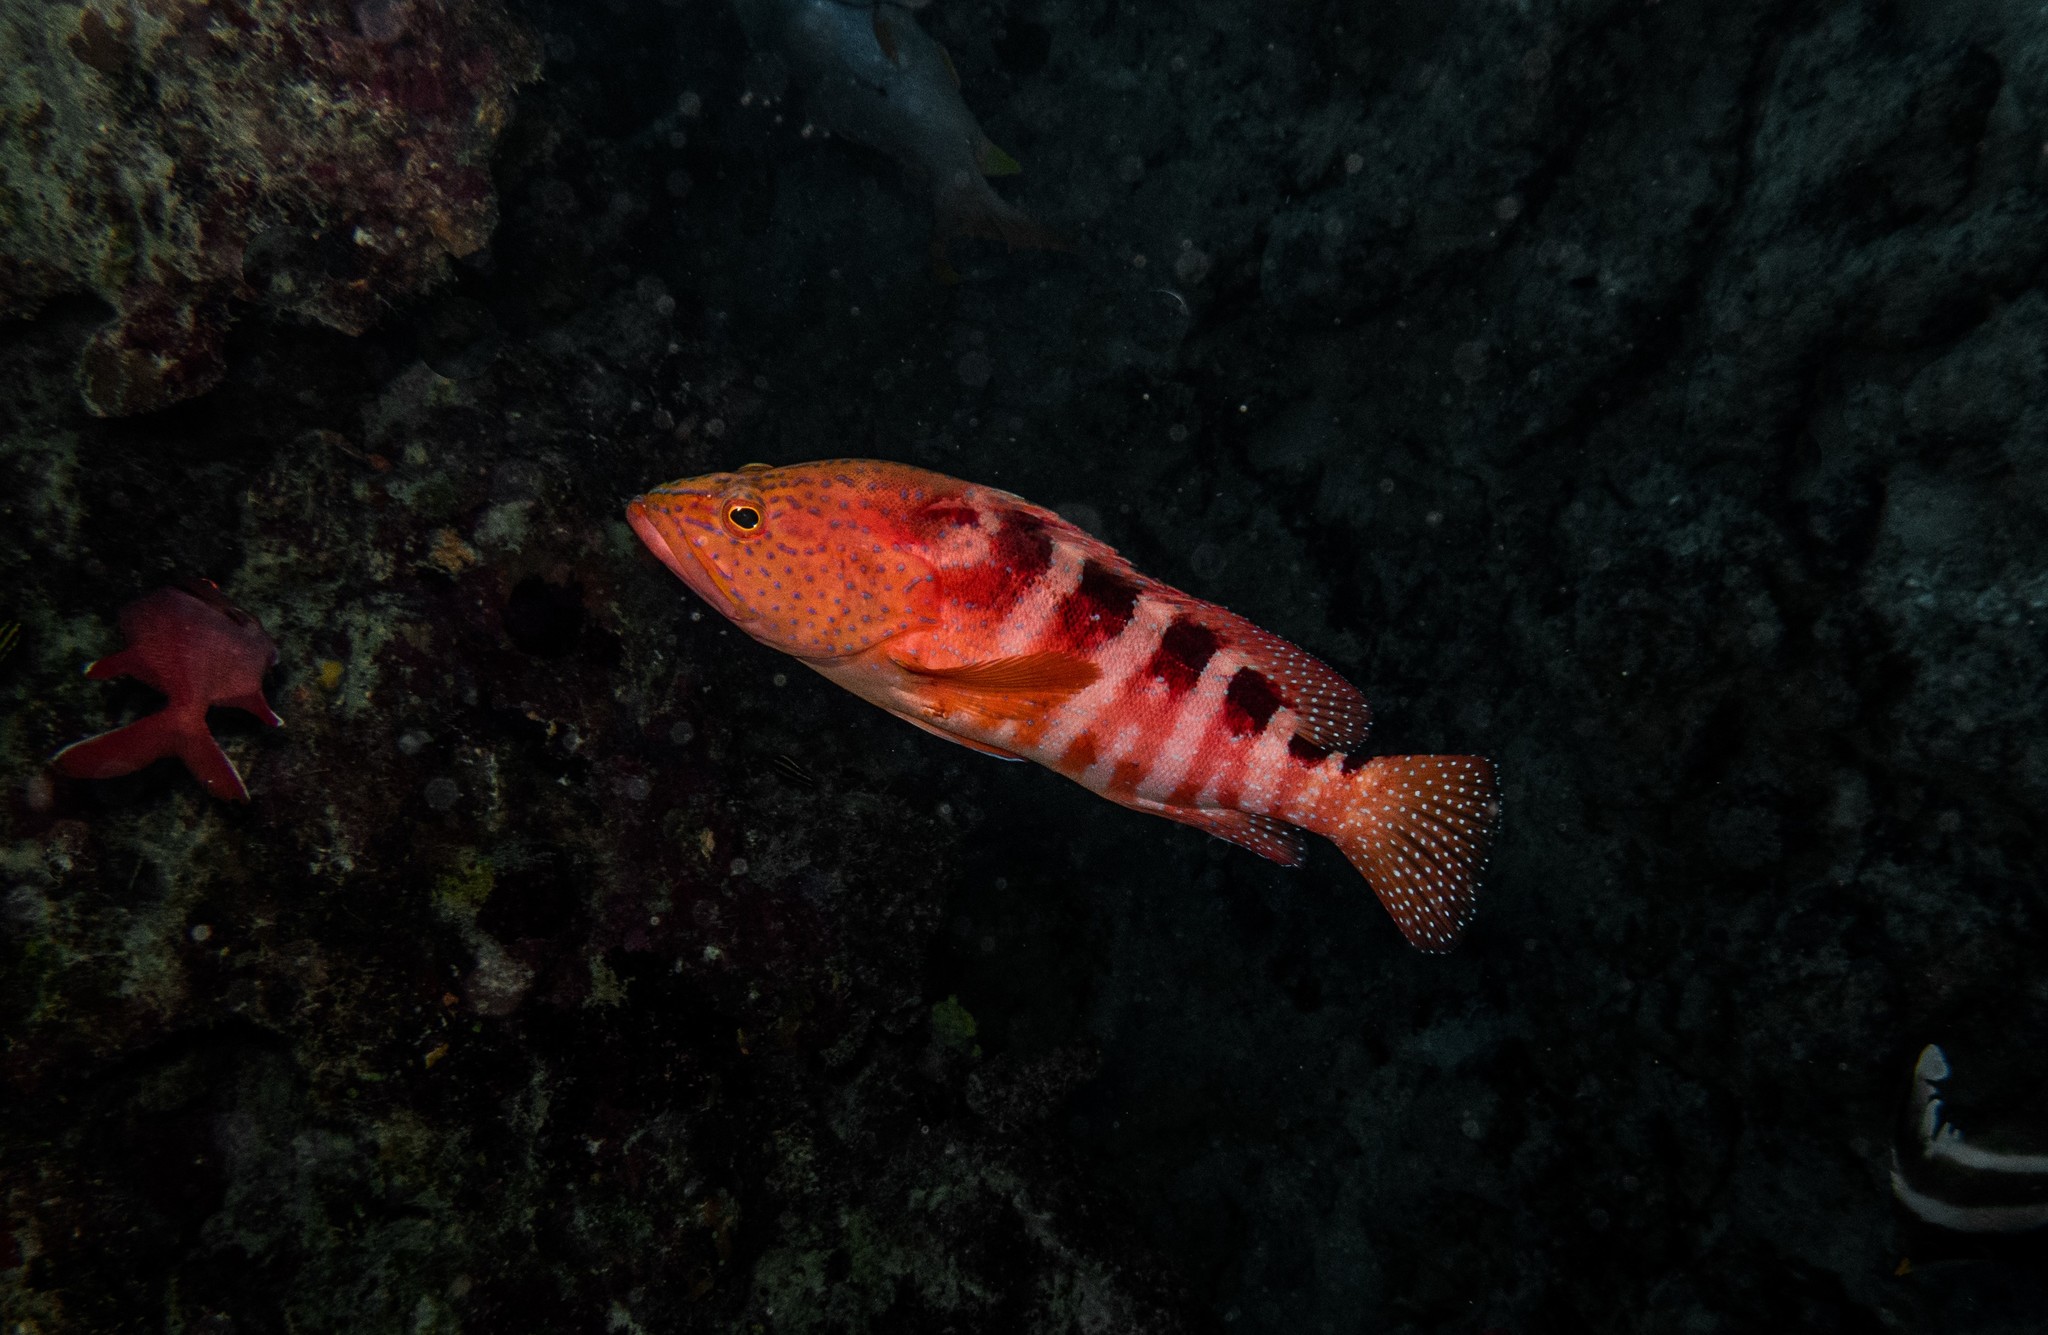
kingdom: Animalia
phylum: Chordata
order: Perciformes
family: Serranidae
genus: Cephalopholis
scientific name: Cephalopholis sexmaculata
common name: Sixblotch hind
